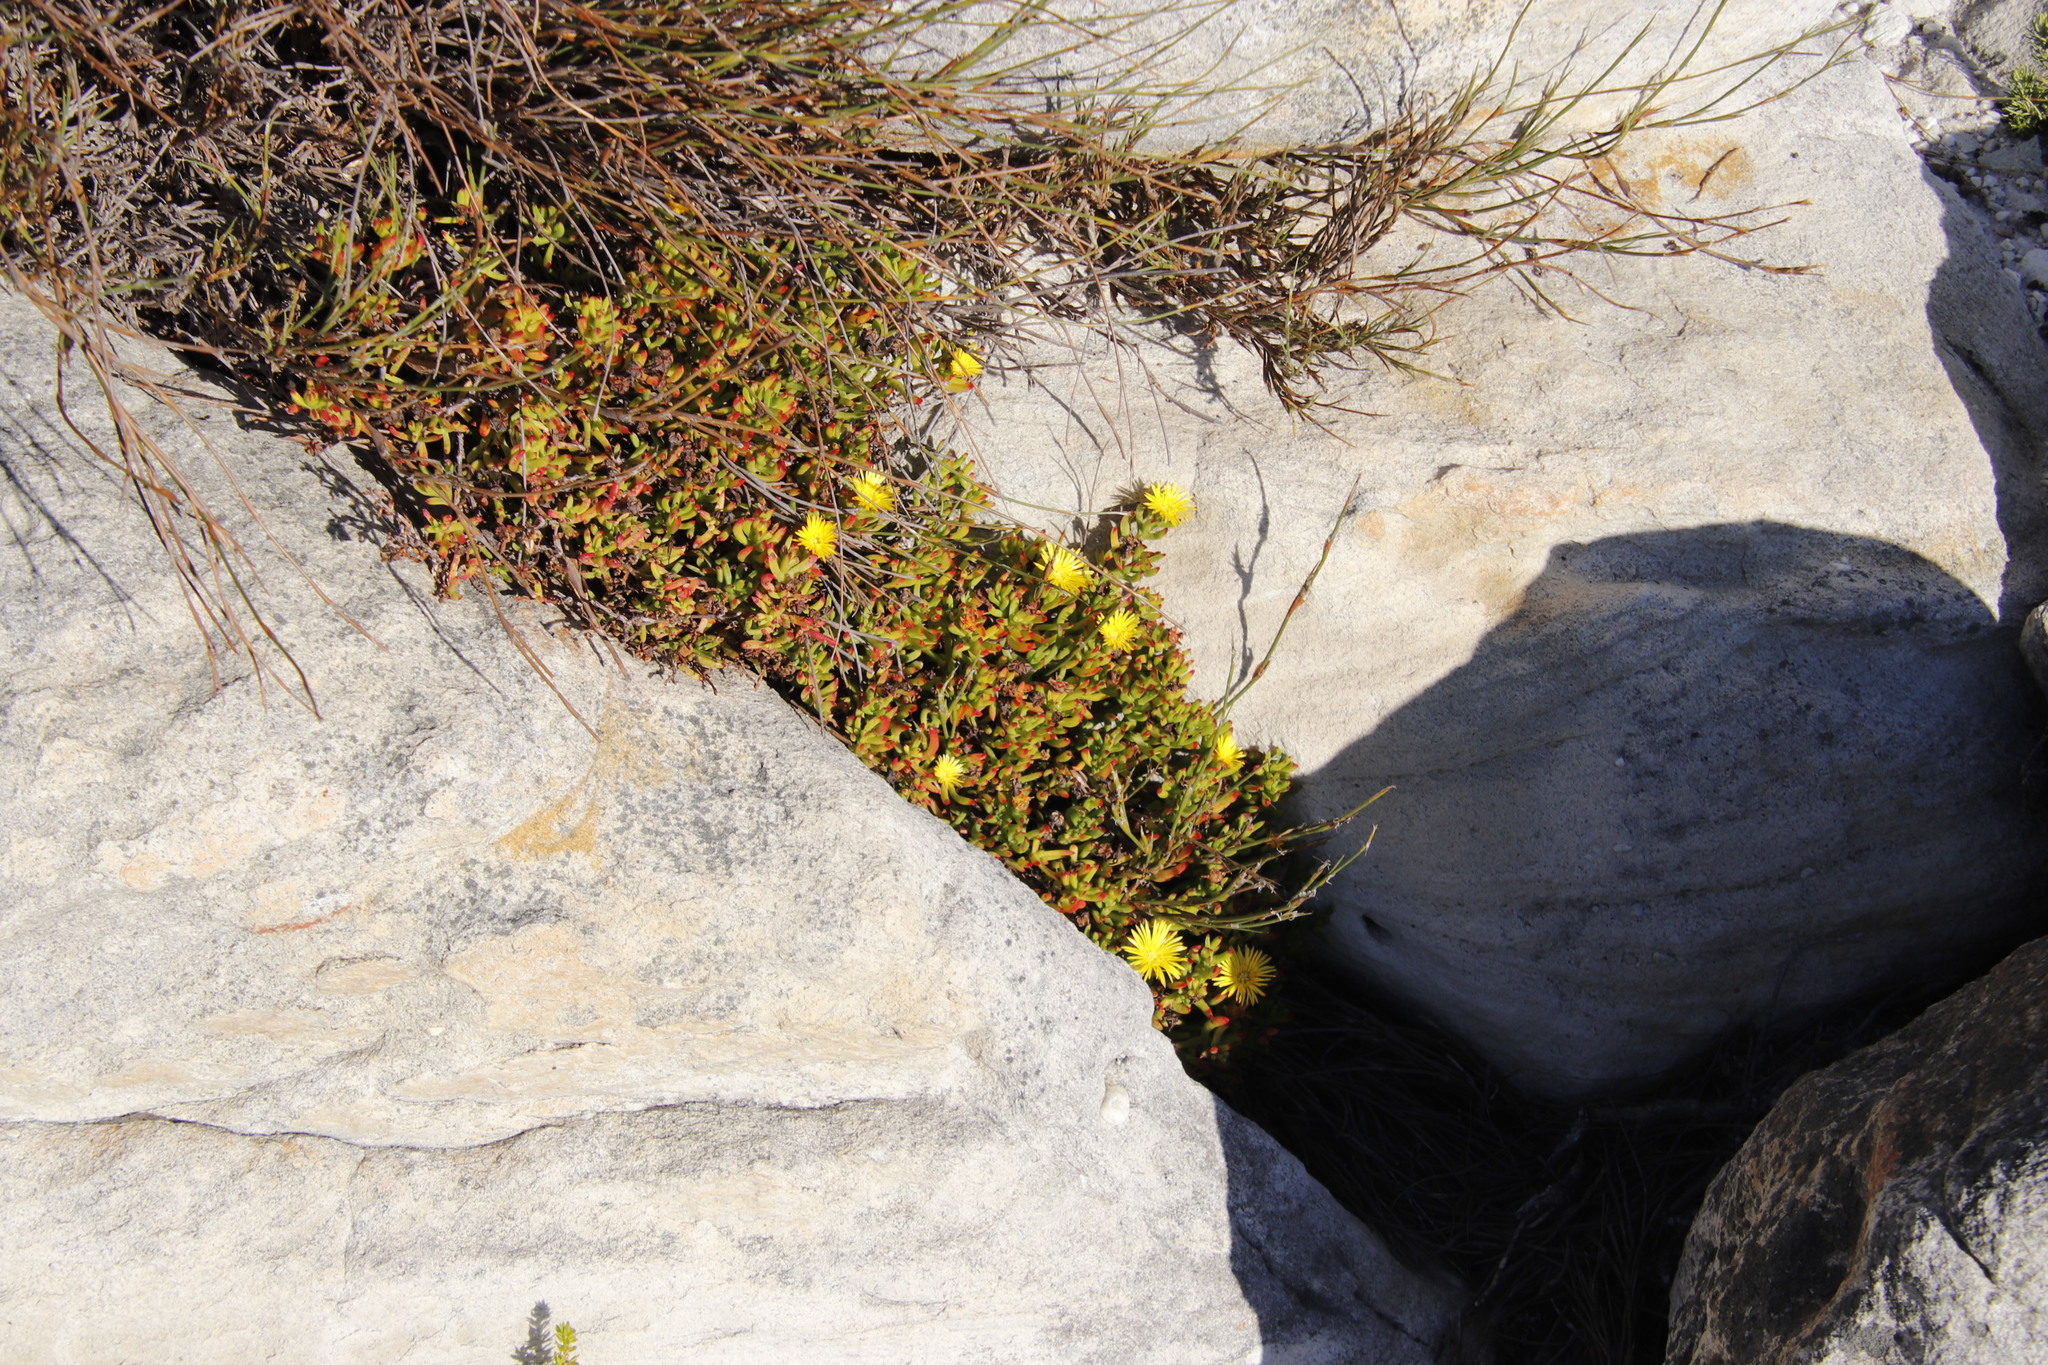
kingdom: Plantae
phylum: Tracheophyta
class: Magnoliopsida
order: Caryophyllales
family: Aizoaceae
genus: Lampranthus
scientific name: Lampranthus promontorii
